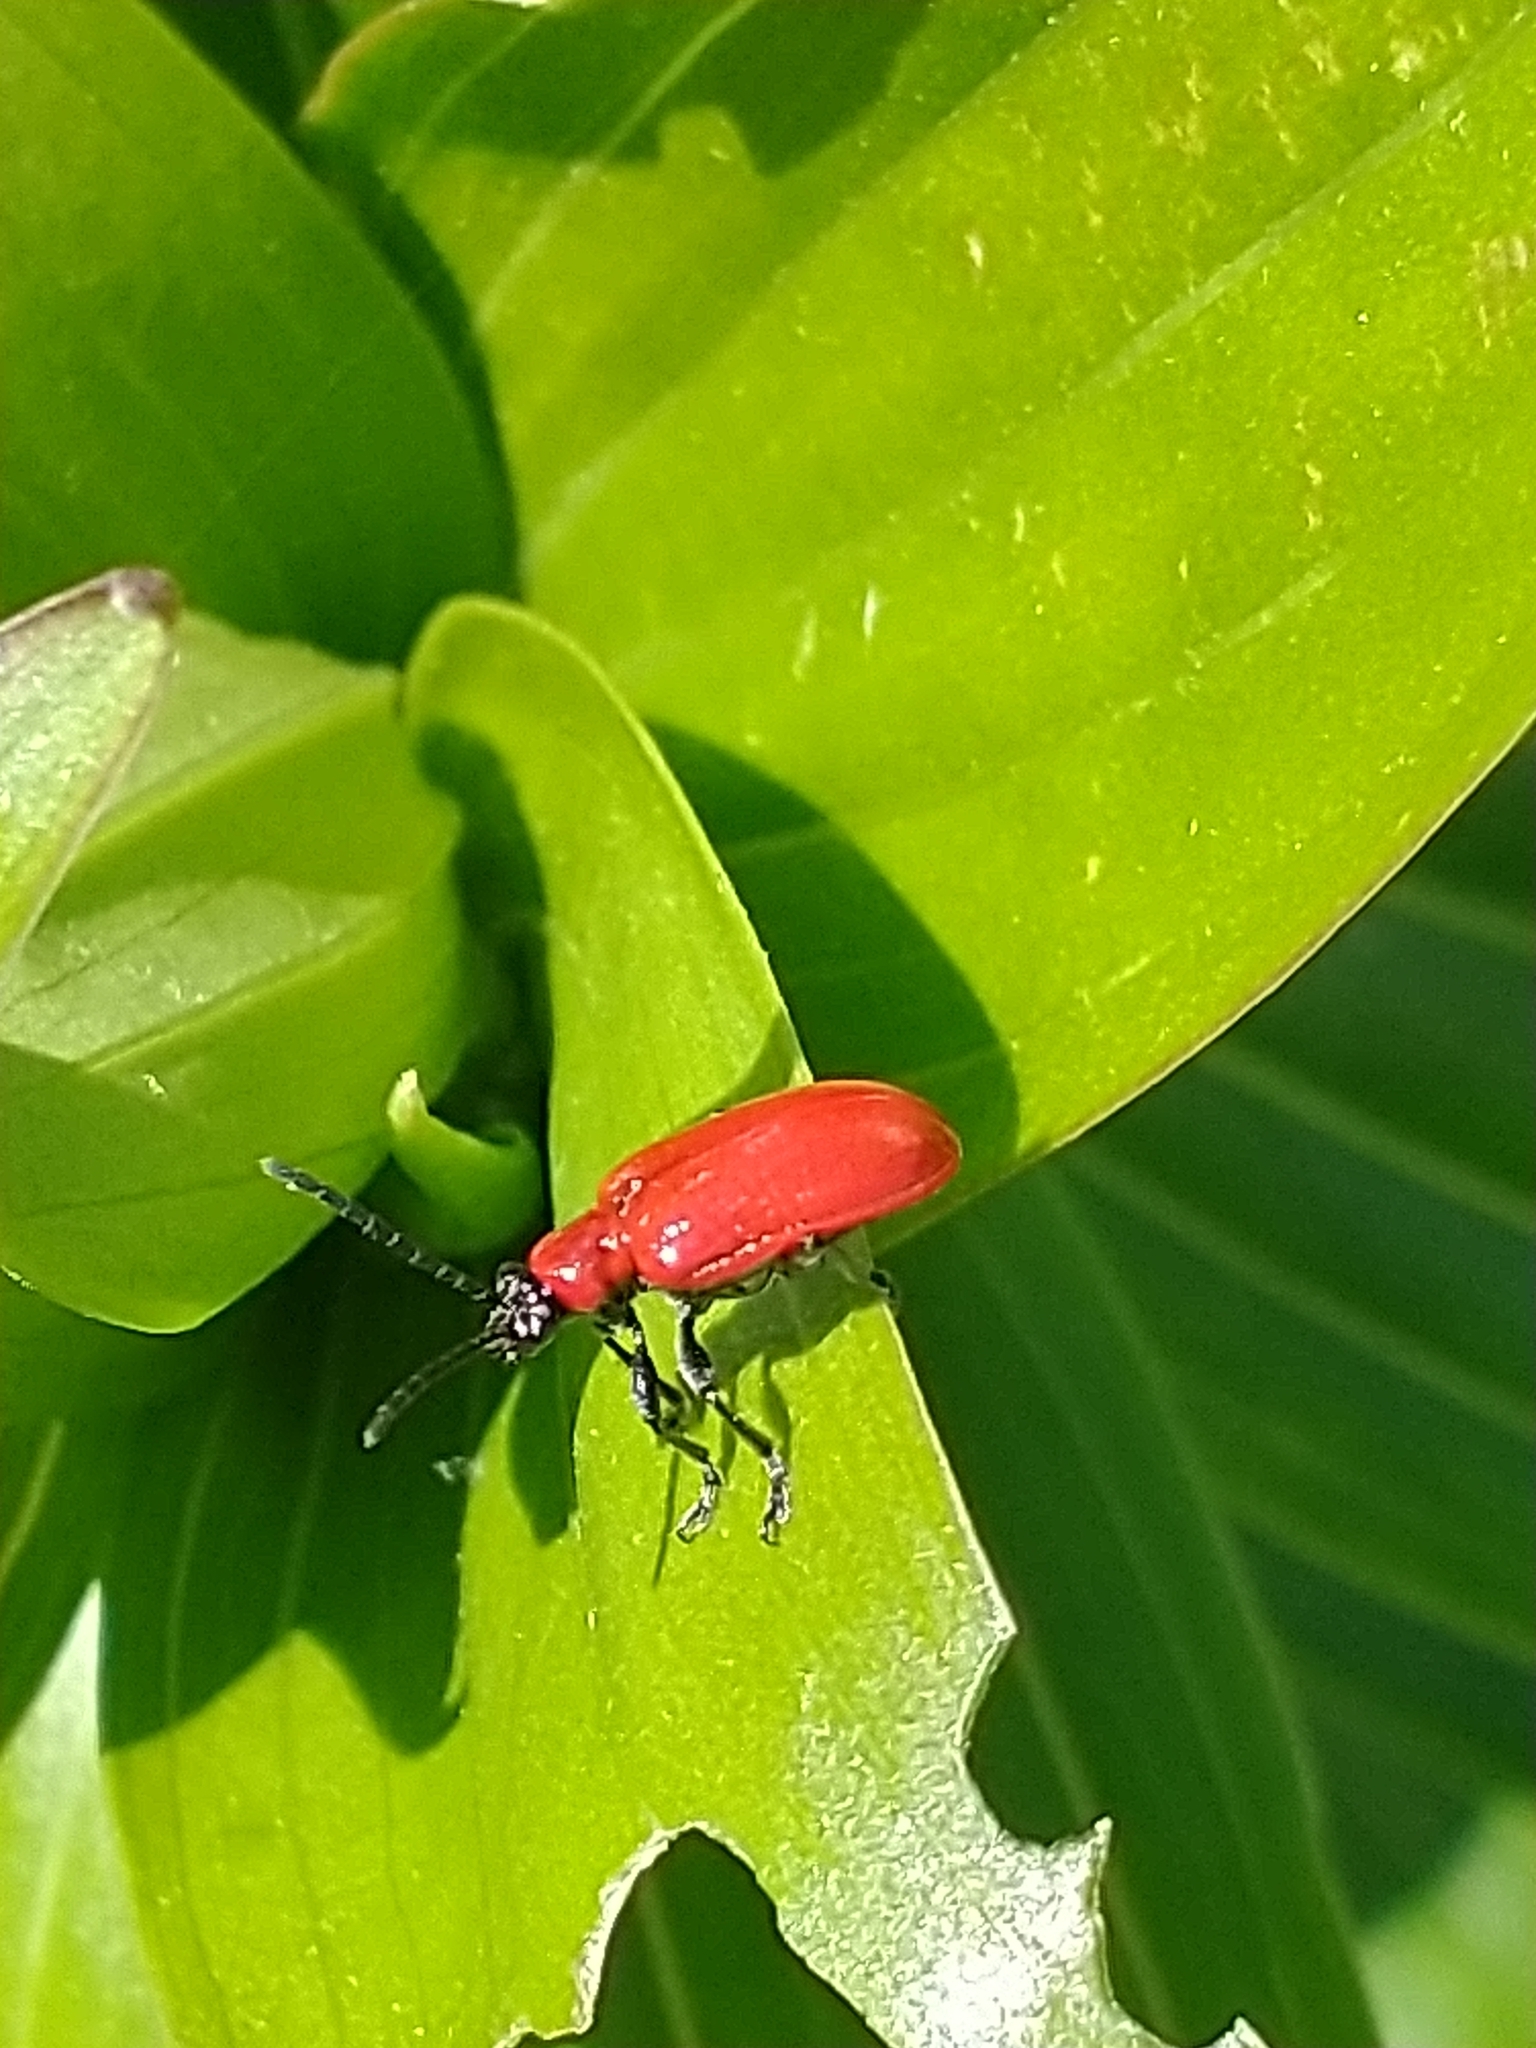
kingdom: Animalia
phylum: Arthropoda
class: Insecta
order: Coleoptera
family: Chrysomelidae
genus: Lilioceris
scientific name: Lilioceris lilii
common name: Lily beetle
